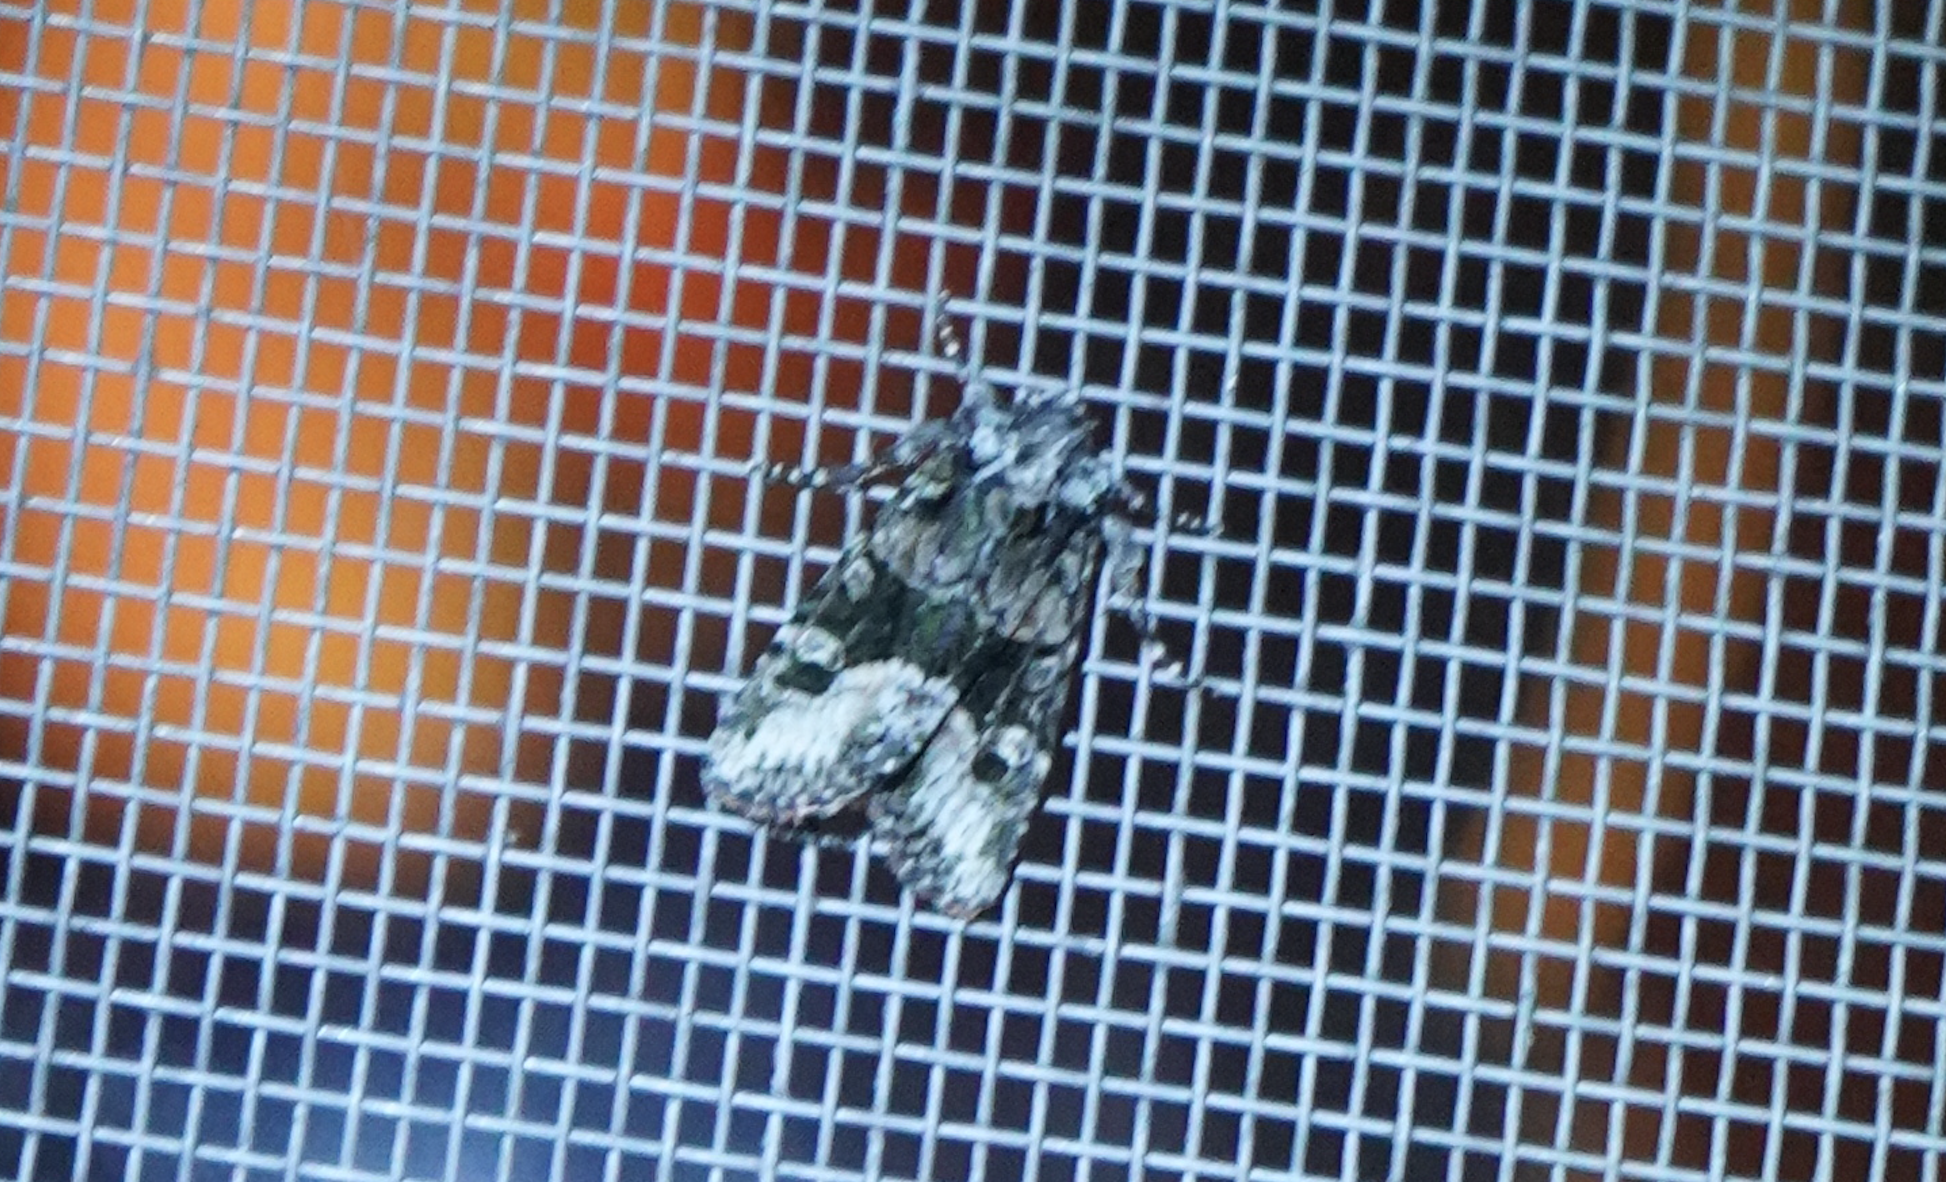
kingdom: Animalia
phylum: Arthropoda
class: Insecta
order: Lepidoptera
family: Noctuidae
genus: Lacinipolia
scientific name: Lacinipolia olivacea
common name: Olive arches moth
